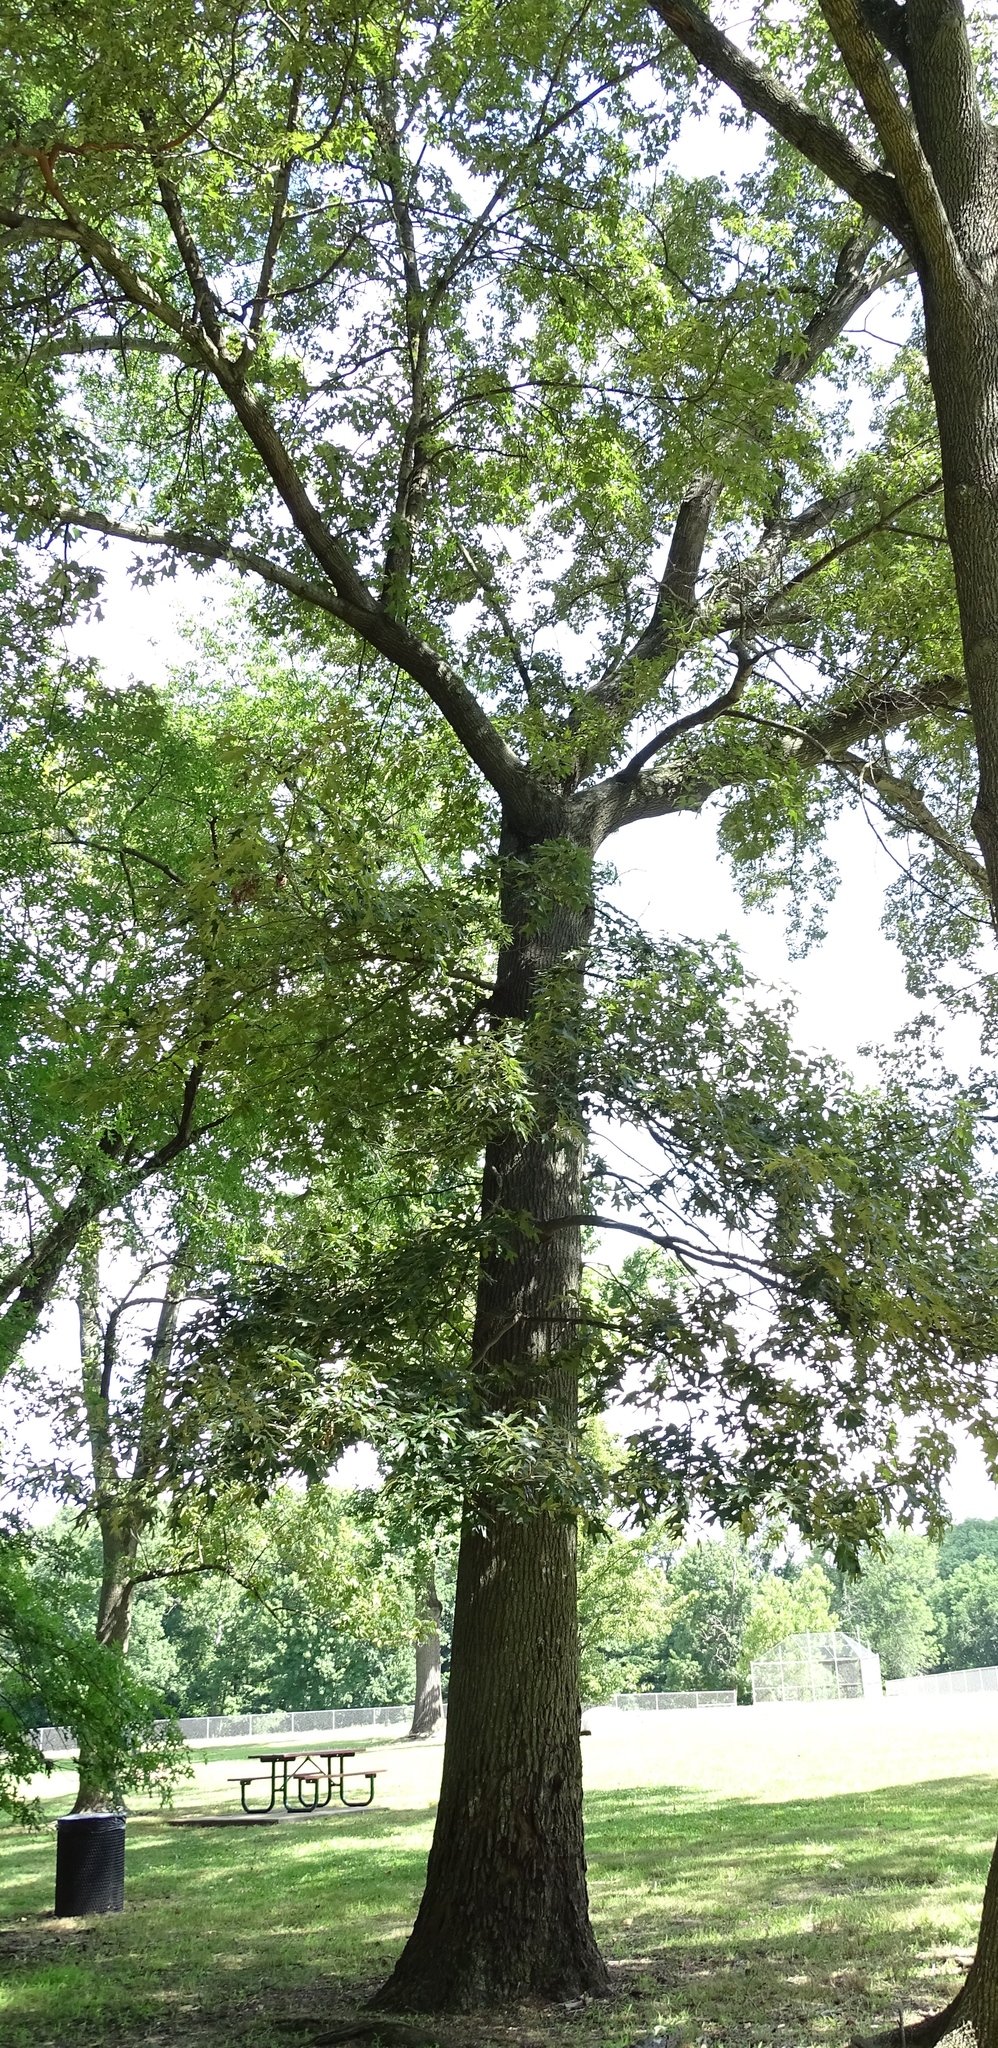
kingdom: Plantae
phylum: Tracheophyta
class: Magnoliopsida
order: Fagales
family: Fagaceae
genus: Quercus
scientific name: Quercus falcata
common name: Southern red oak
